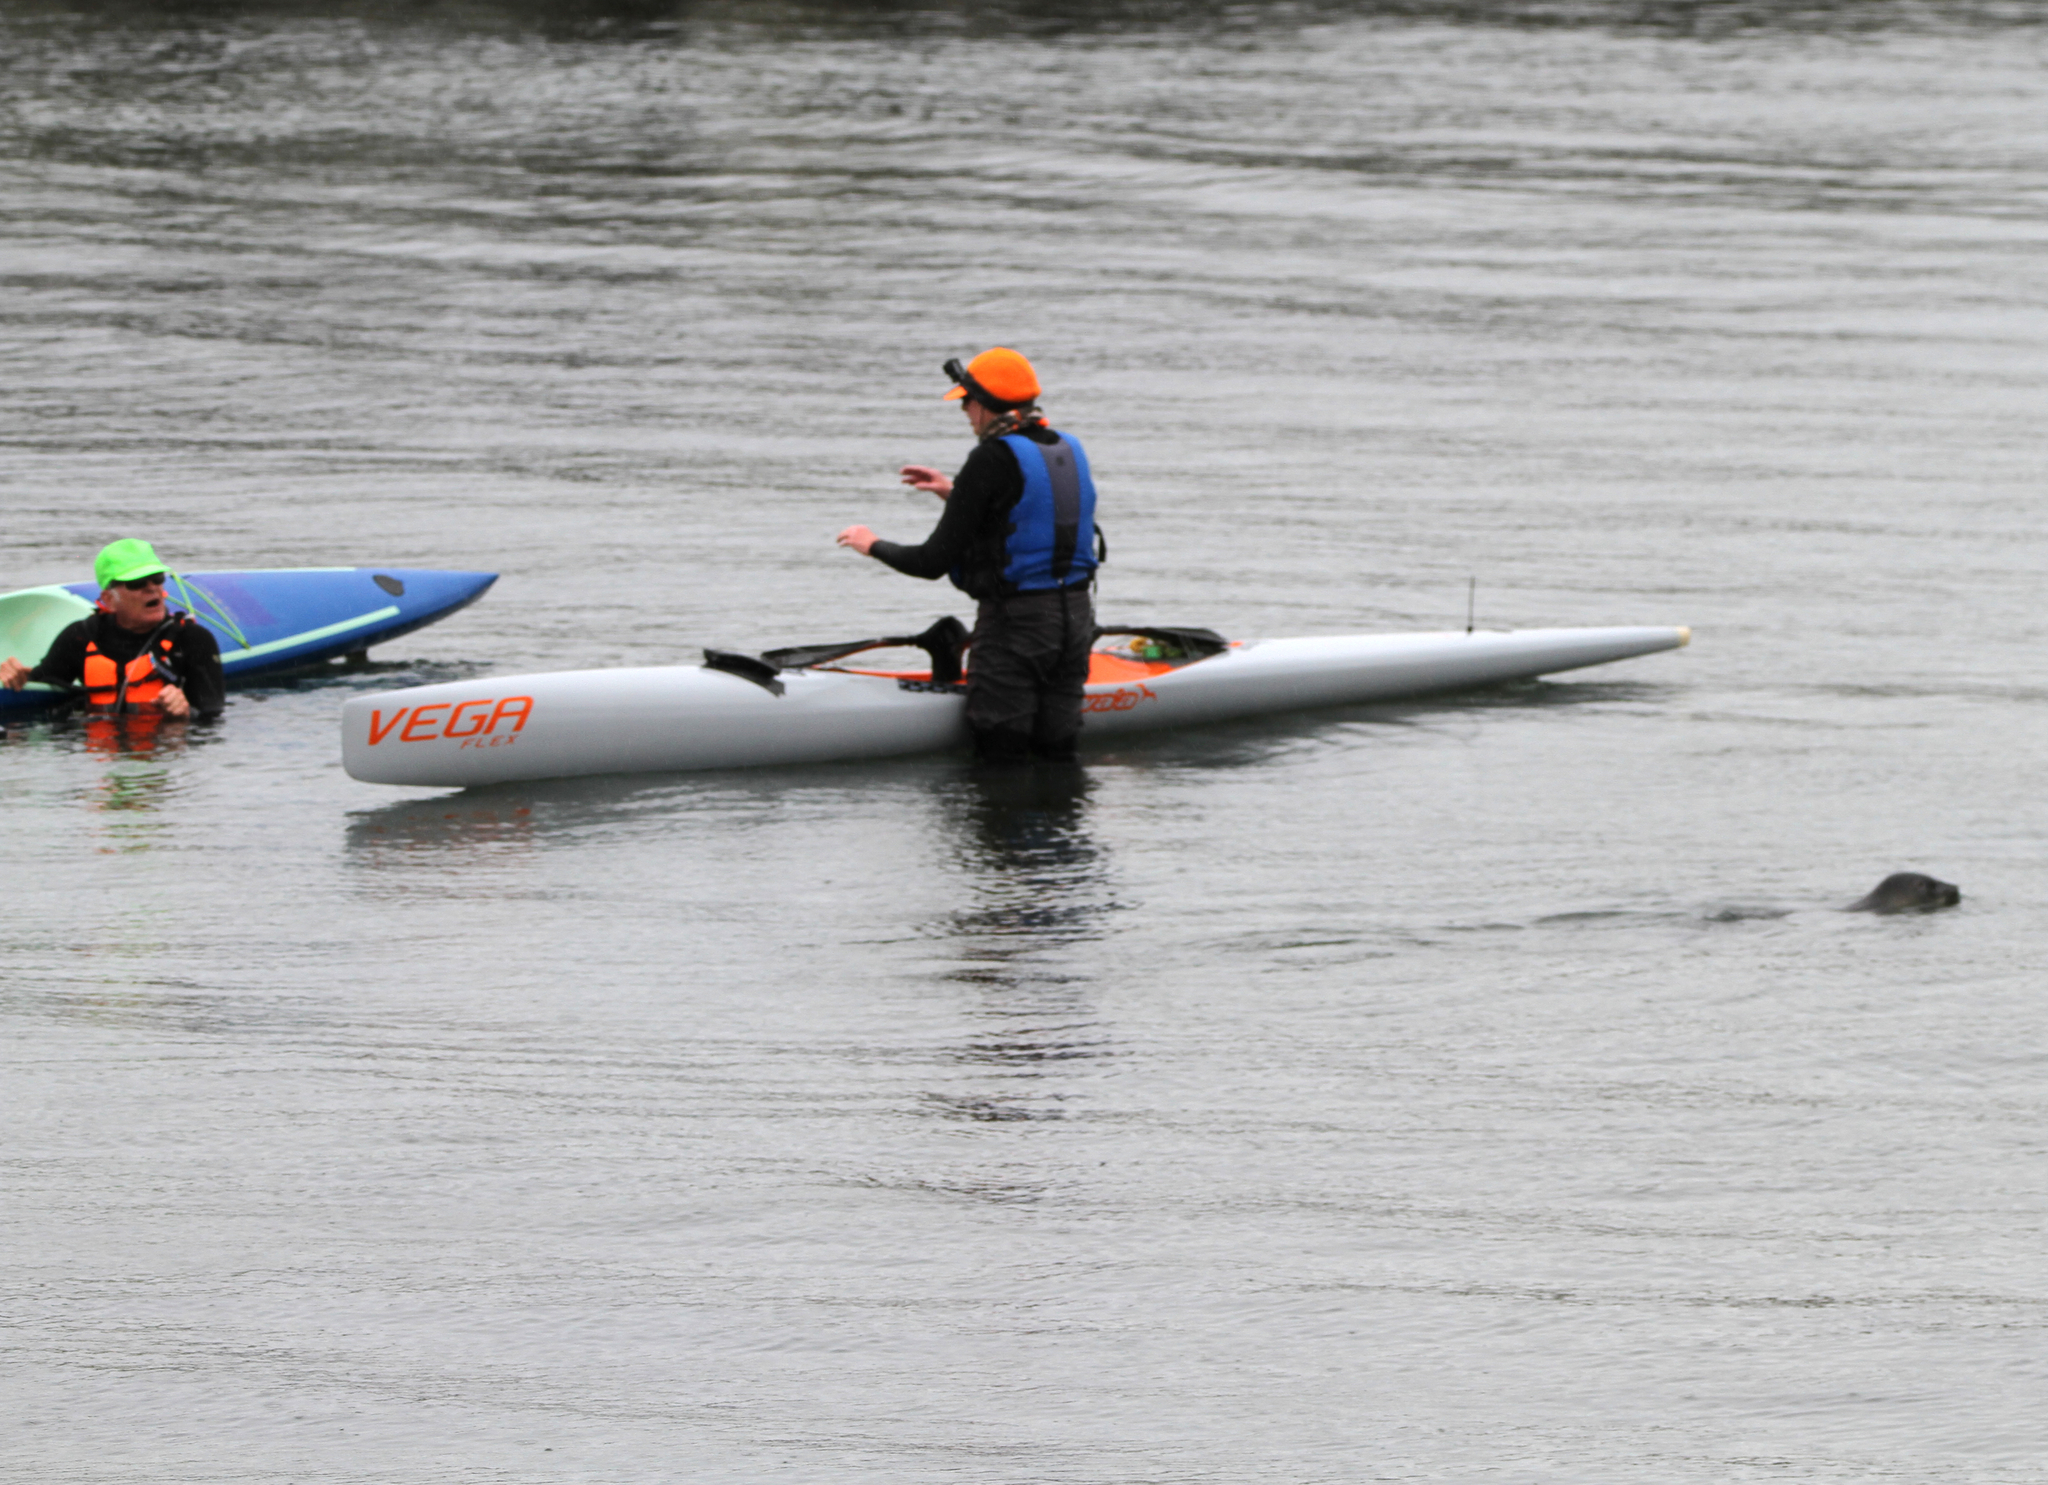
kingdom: Animalia
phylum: Chordata
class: Mammalia
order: Carnivora
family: Phocidae
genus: Phoca
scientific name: Phoca vitulina
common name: Harbor seal
